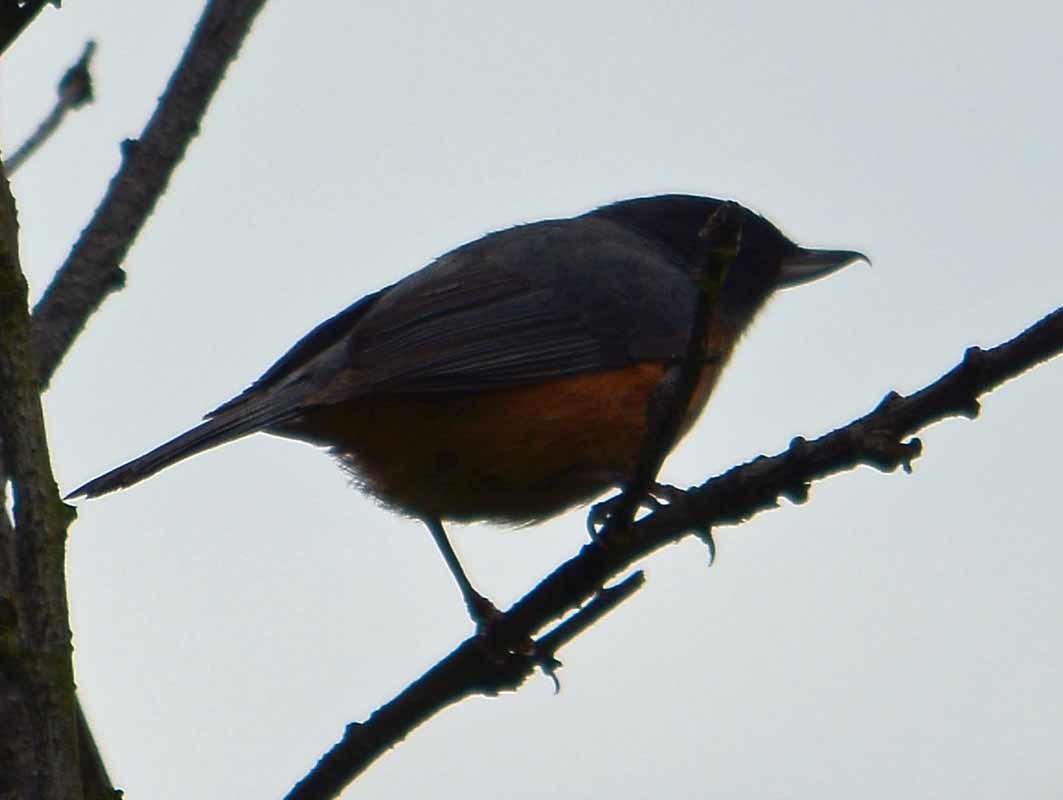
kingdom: Animalia
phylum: Chordata
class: Aves
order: Passeriformes
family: Thraupidae
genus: Diglossa
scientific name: Diglossa baritula
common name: Cinnamon-bellied flowerpiercer
